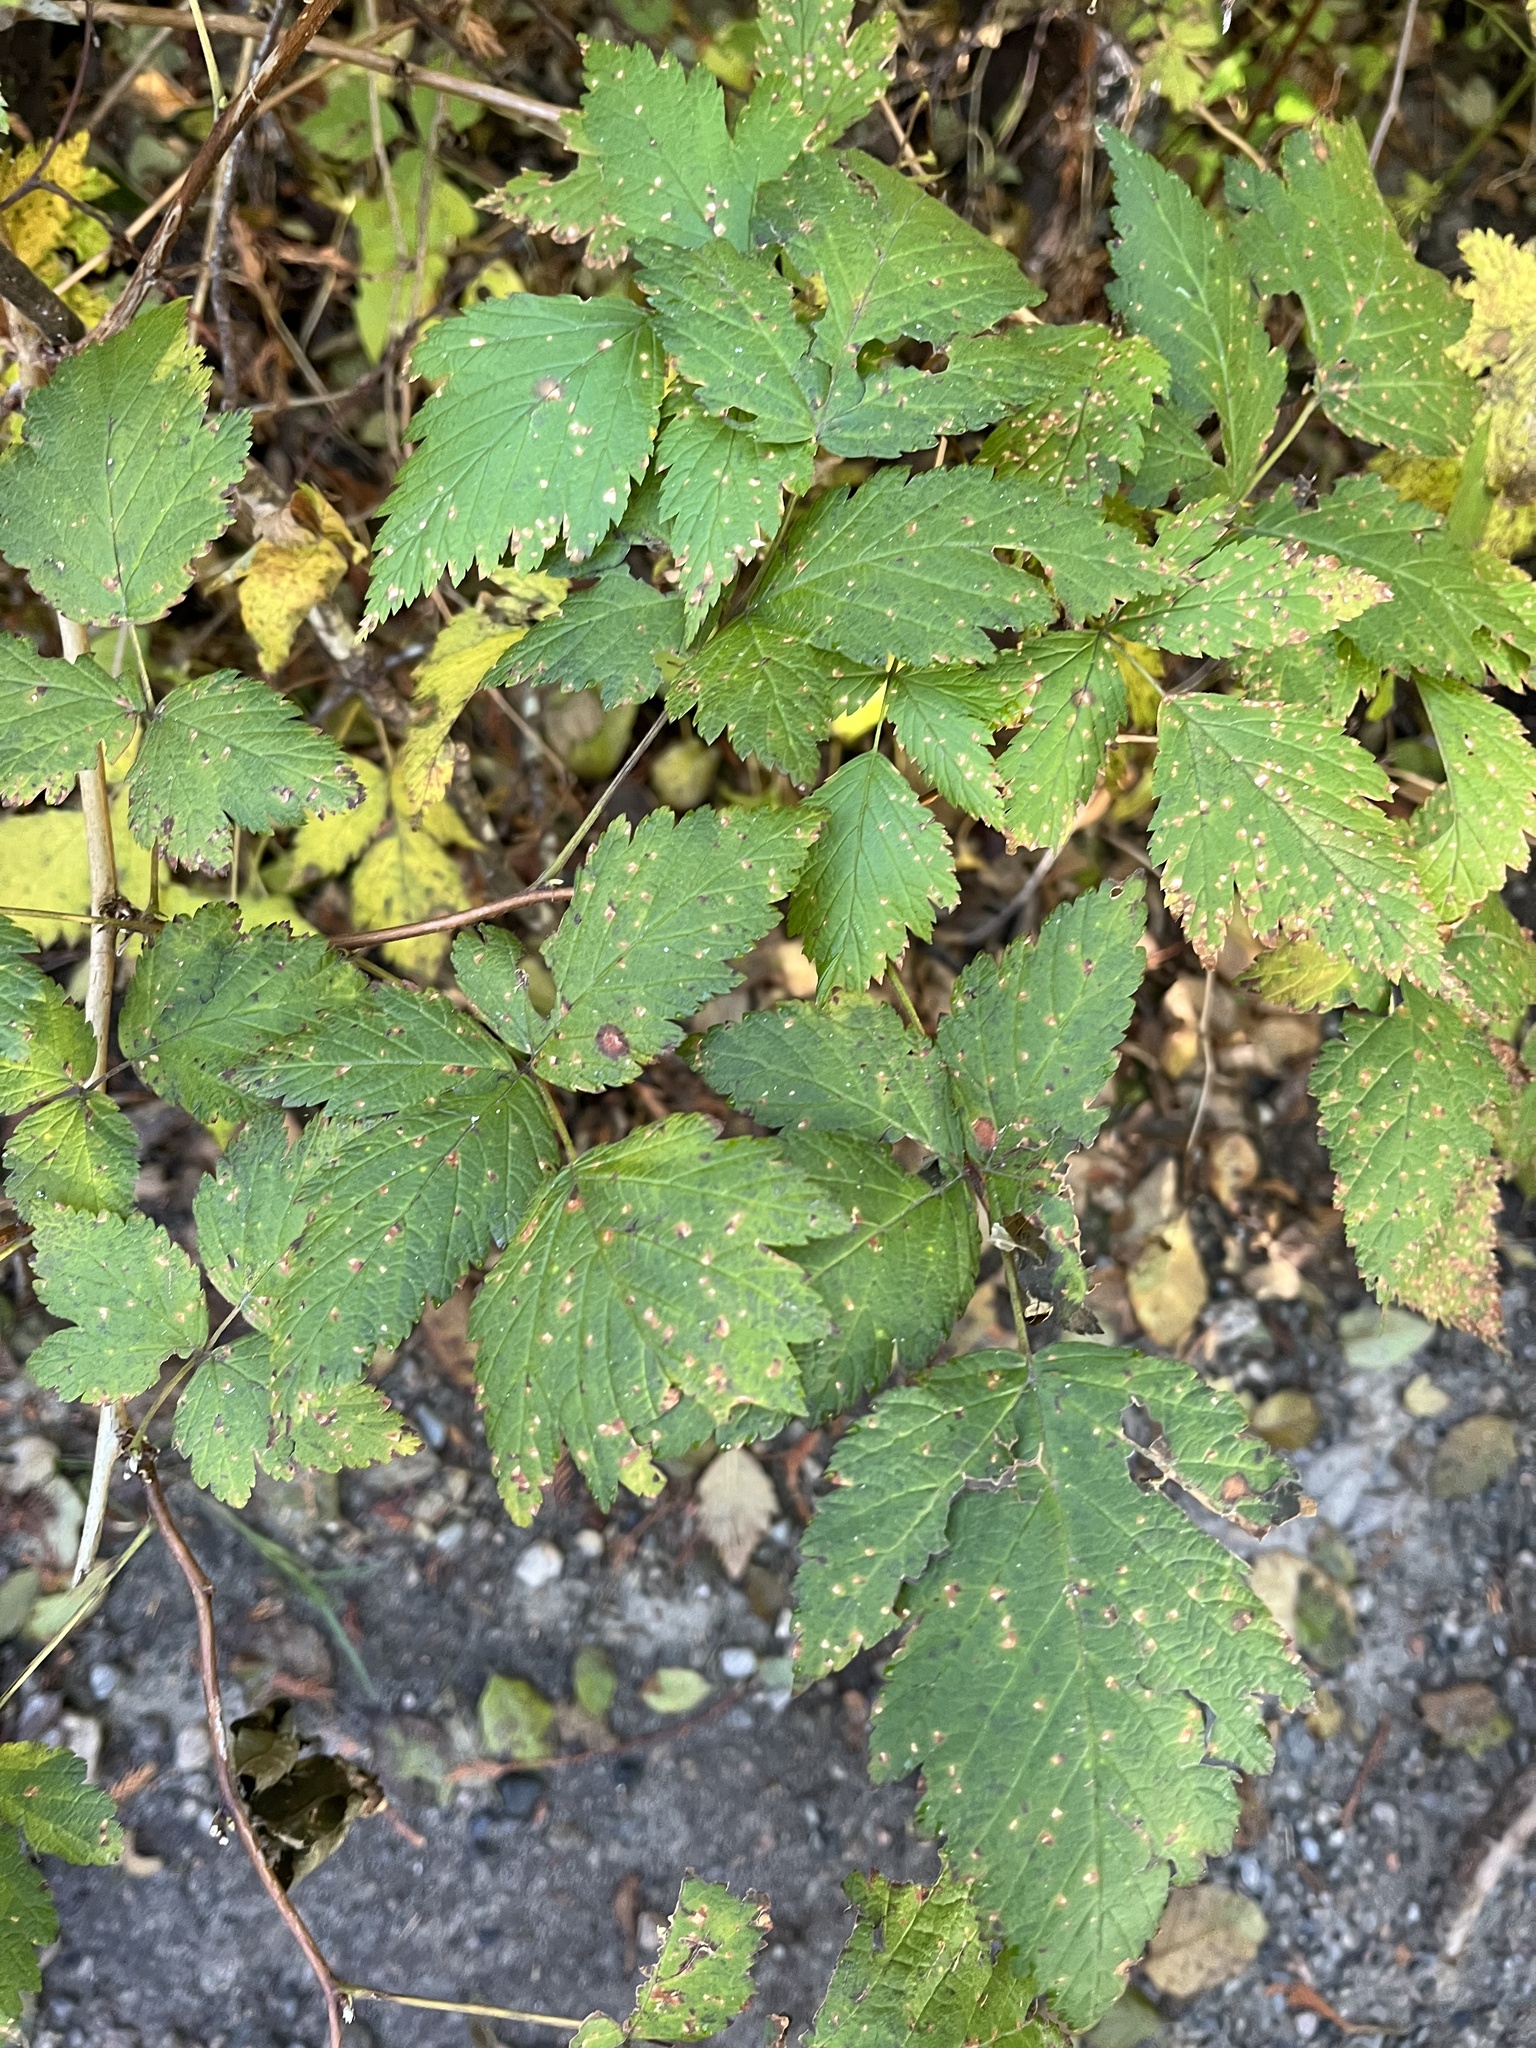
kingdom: Plantae
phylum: Tracheophyta
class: Magnoliopsida
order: Rosales
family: Rosaceae
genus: Rubus
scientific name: Rubus spectabilis
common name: Salmonberry
